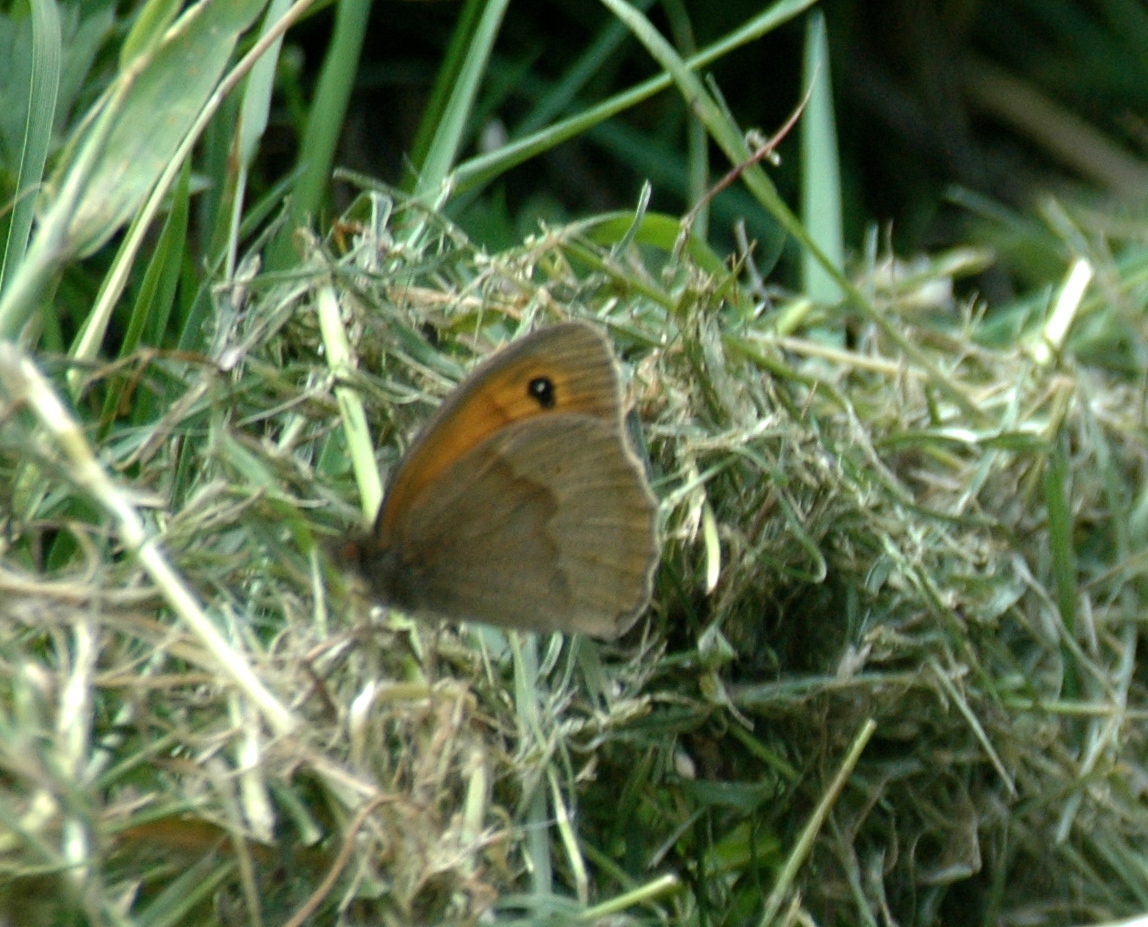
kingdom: Animalia
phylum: Arthropoda
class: Insecta
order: Lepidoptera
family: Nymphalidae
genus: Maniola
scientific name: Maniola jurtina
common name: Meadow brown
